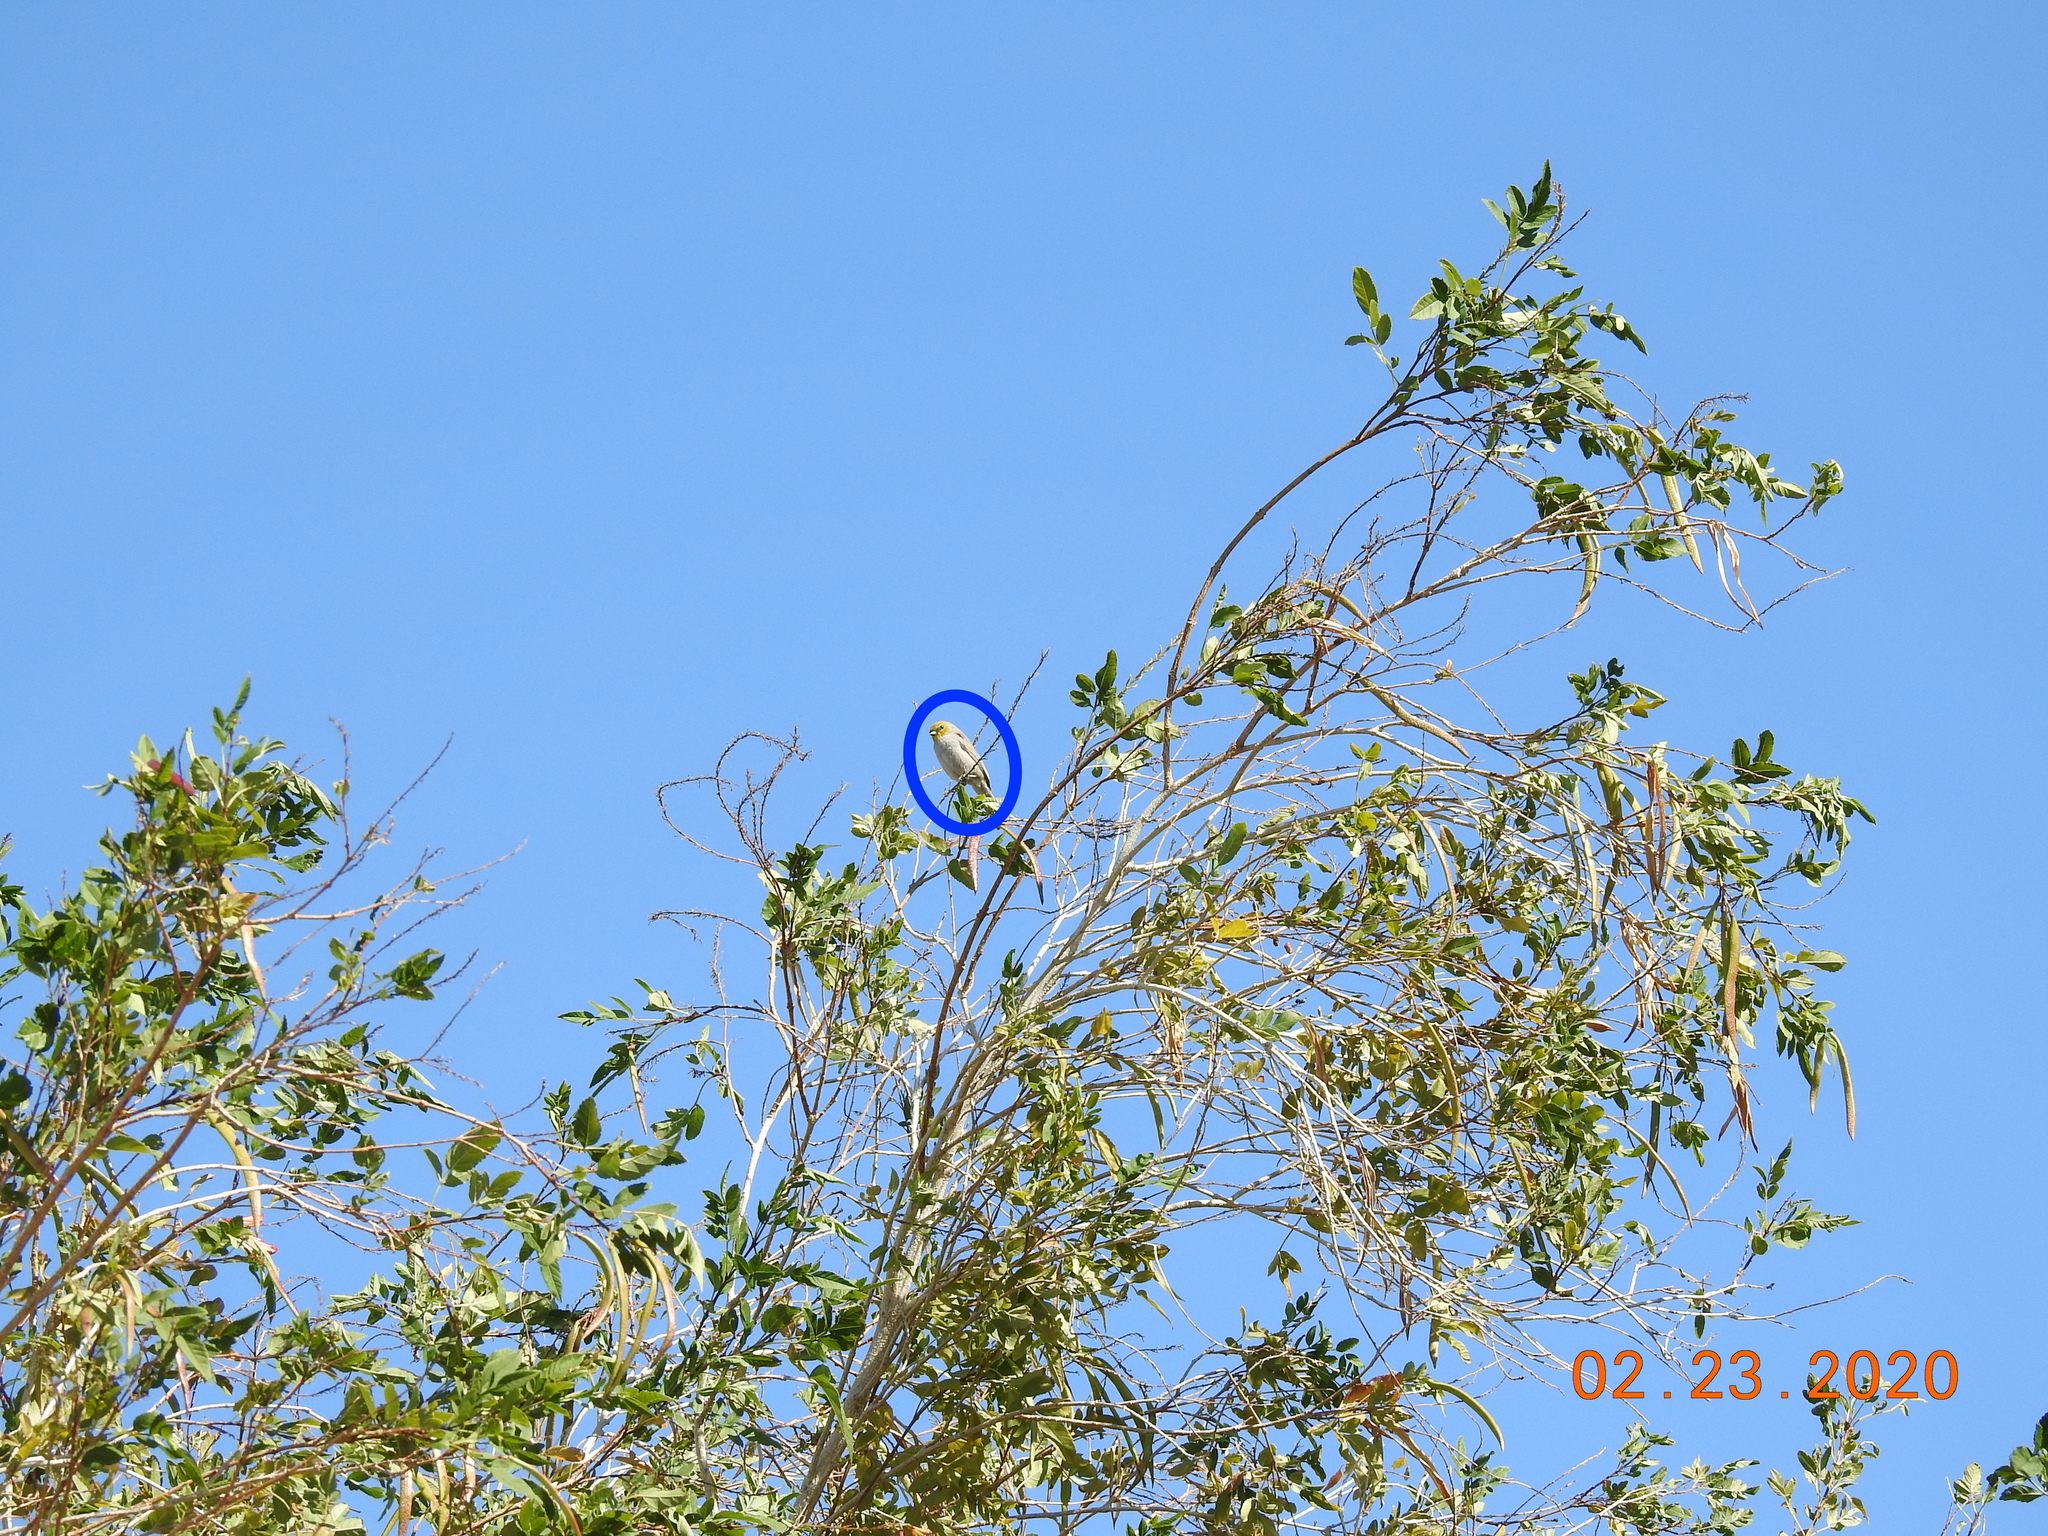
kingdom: Animalia
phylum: Chordata
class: Aves
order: Passeriformes
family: Remizidae
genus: Auriparus
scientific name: Auriparus flaviceps
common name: Verdin
